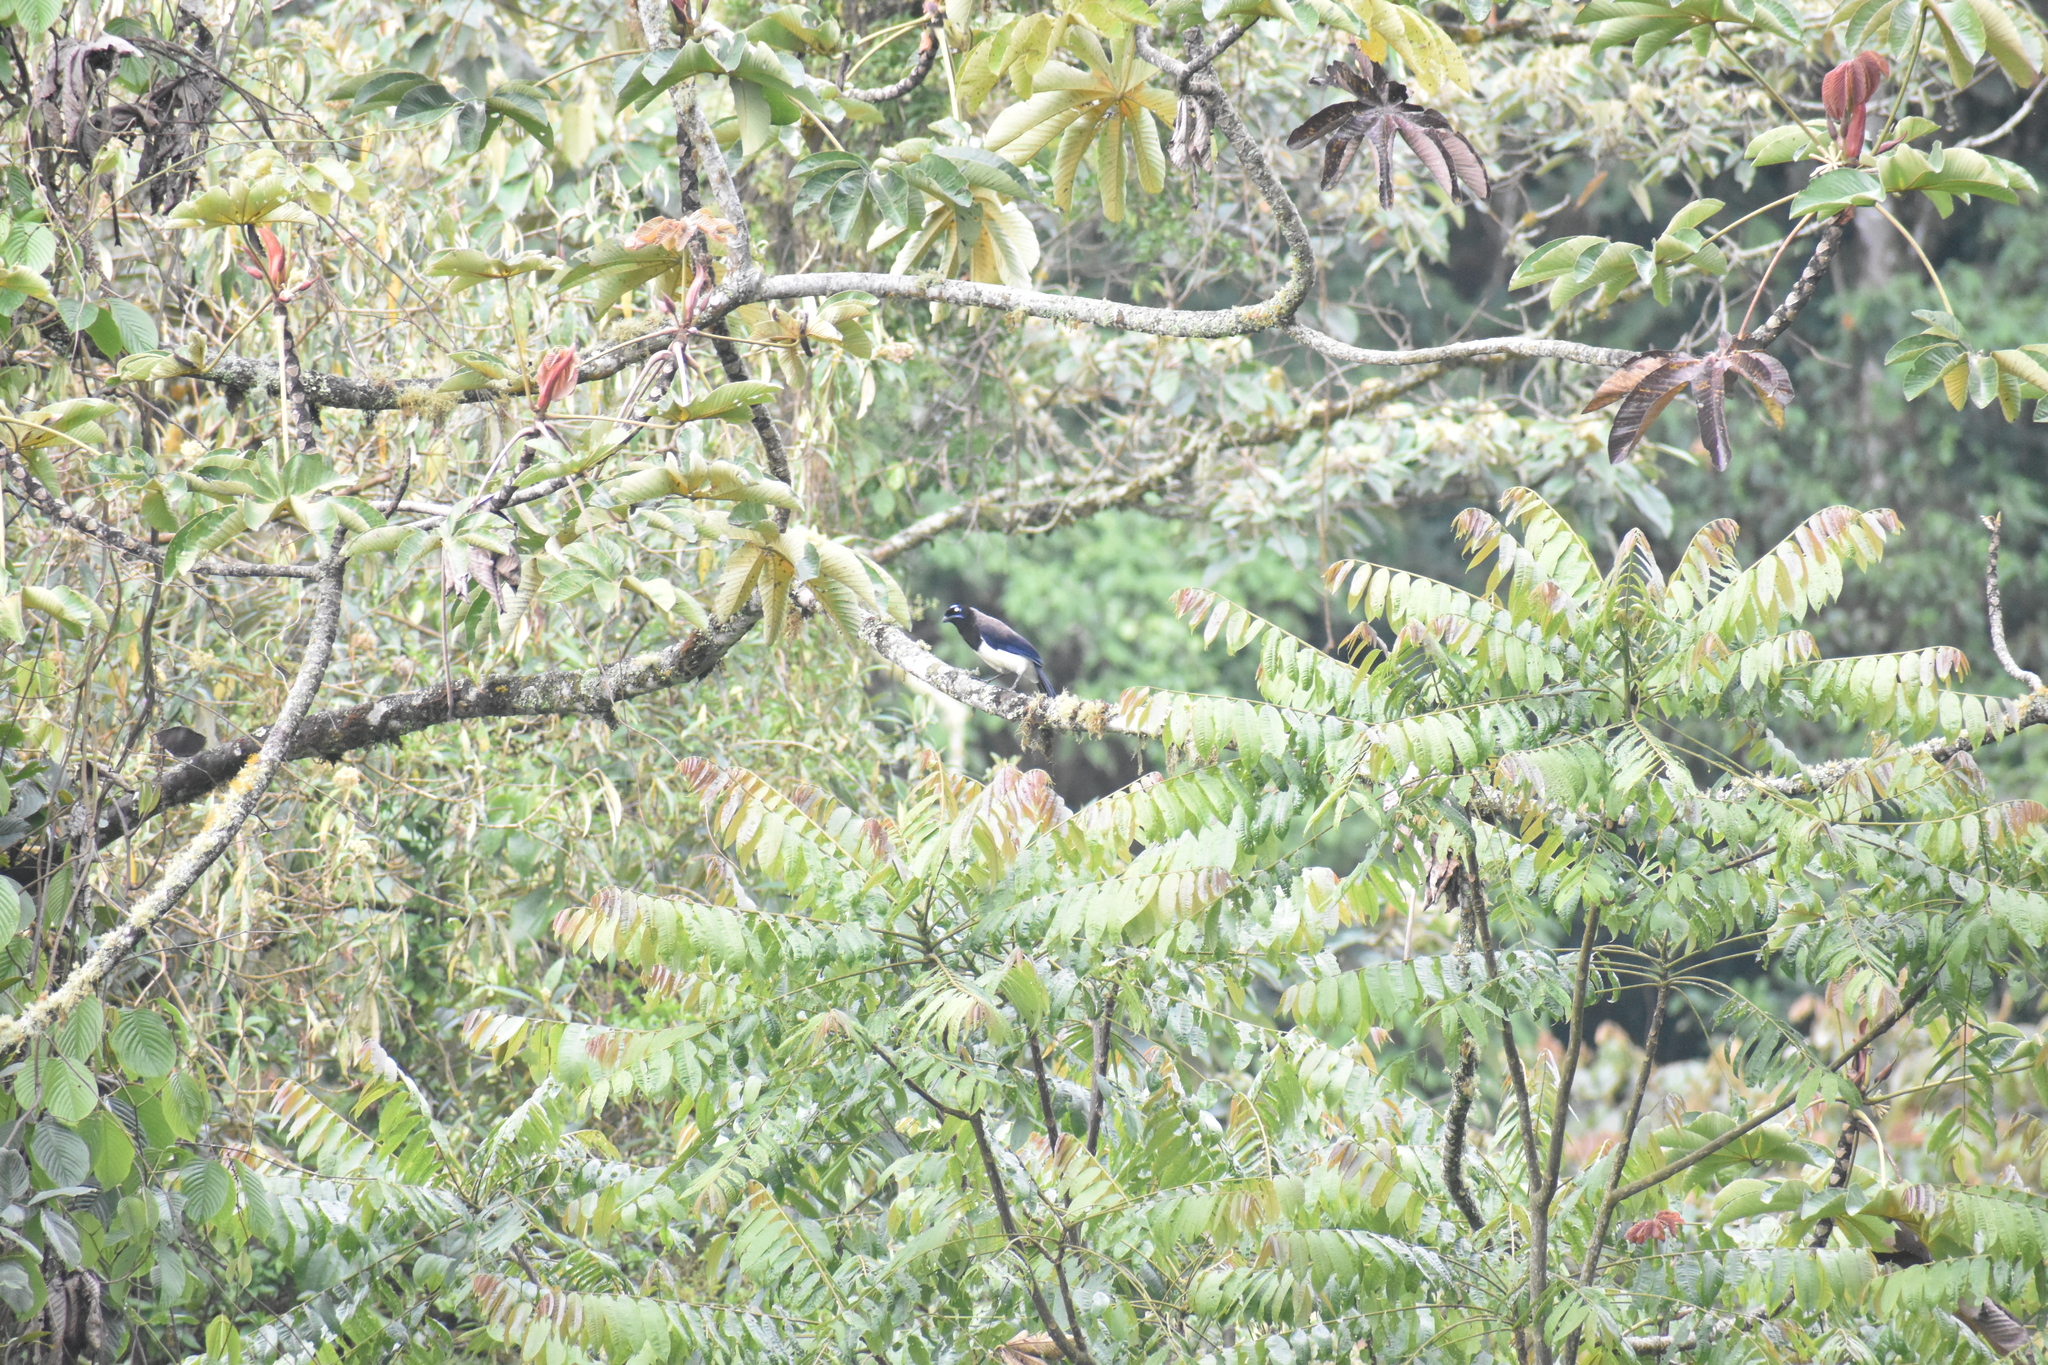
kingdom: Animalia
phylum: Chordata
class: Aves
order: Passeriformes
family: Corvidae
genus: Cyanocorax
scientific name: Cyanocorax affinis
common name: Black-chested jay
